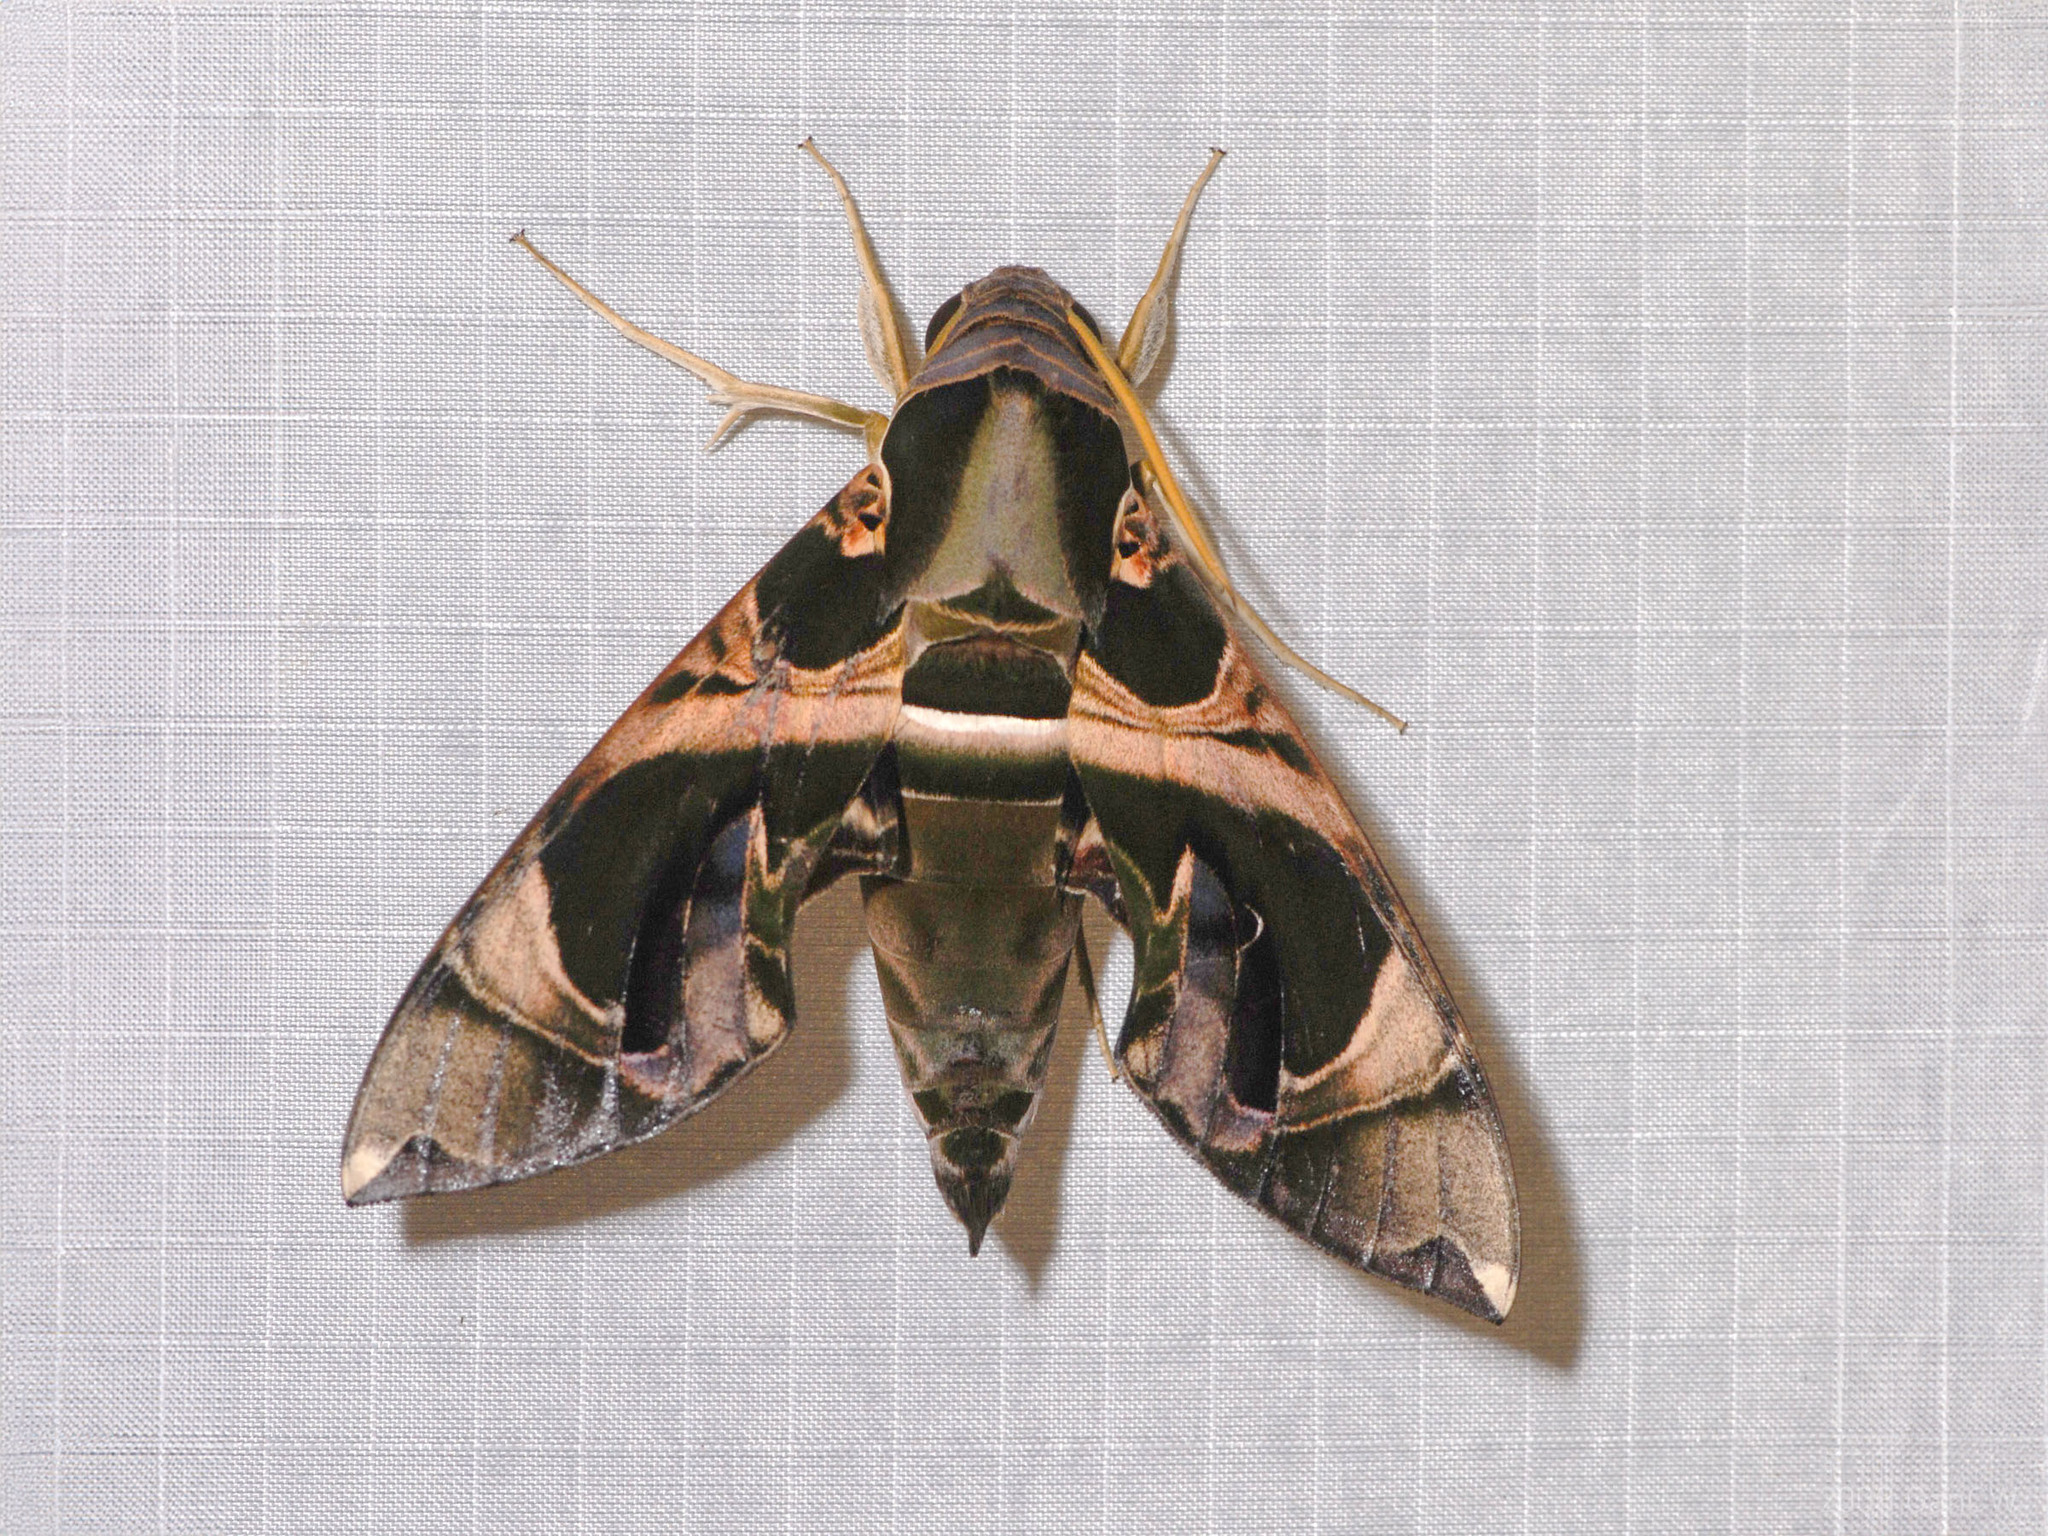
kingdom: Animalia
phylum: Arthropoda
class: Insecta
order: Lepidoptera
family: Sphingidae
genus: Daphnis
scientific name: Daphnis hypothous
